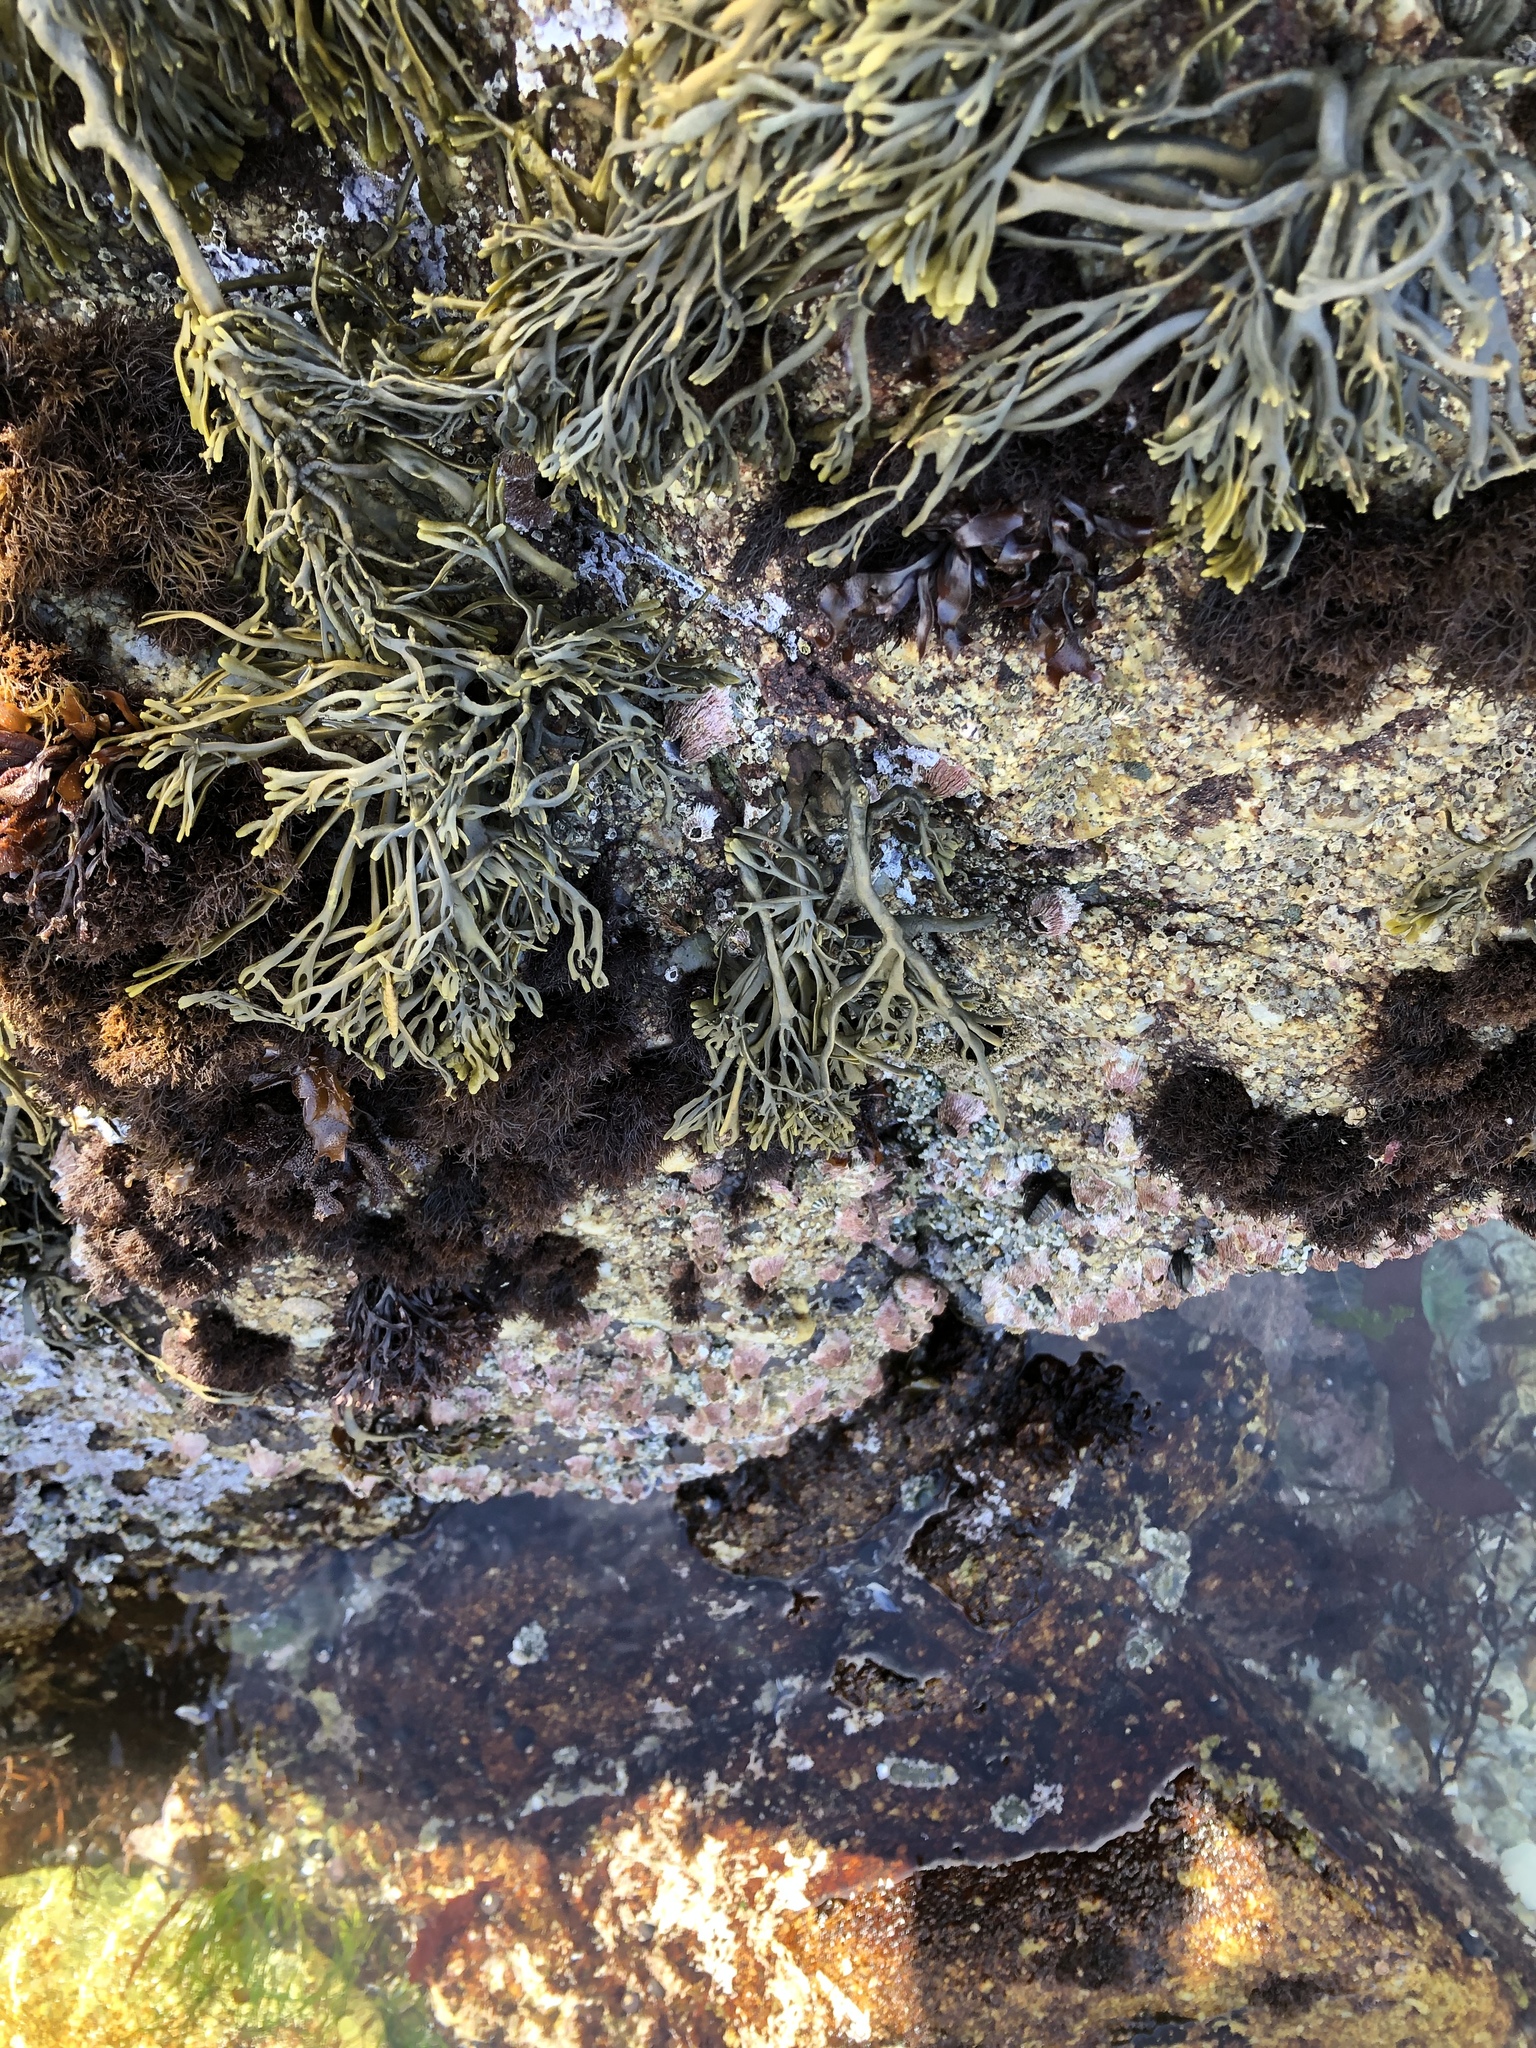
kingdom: Chromista
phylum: Ochrophyta
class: Phaeophyceae
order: Fucales
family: Fucaceae
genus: Silvetia
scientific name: Silvetia
